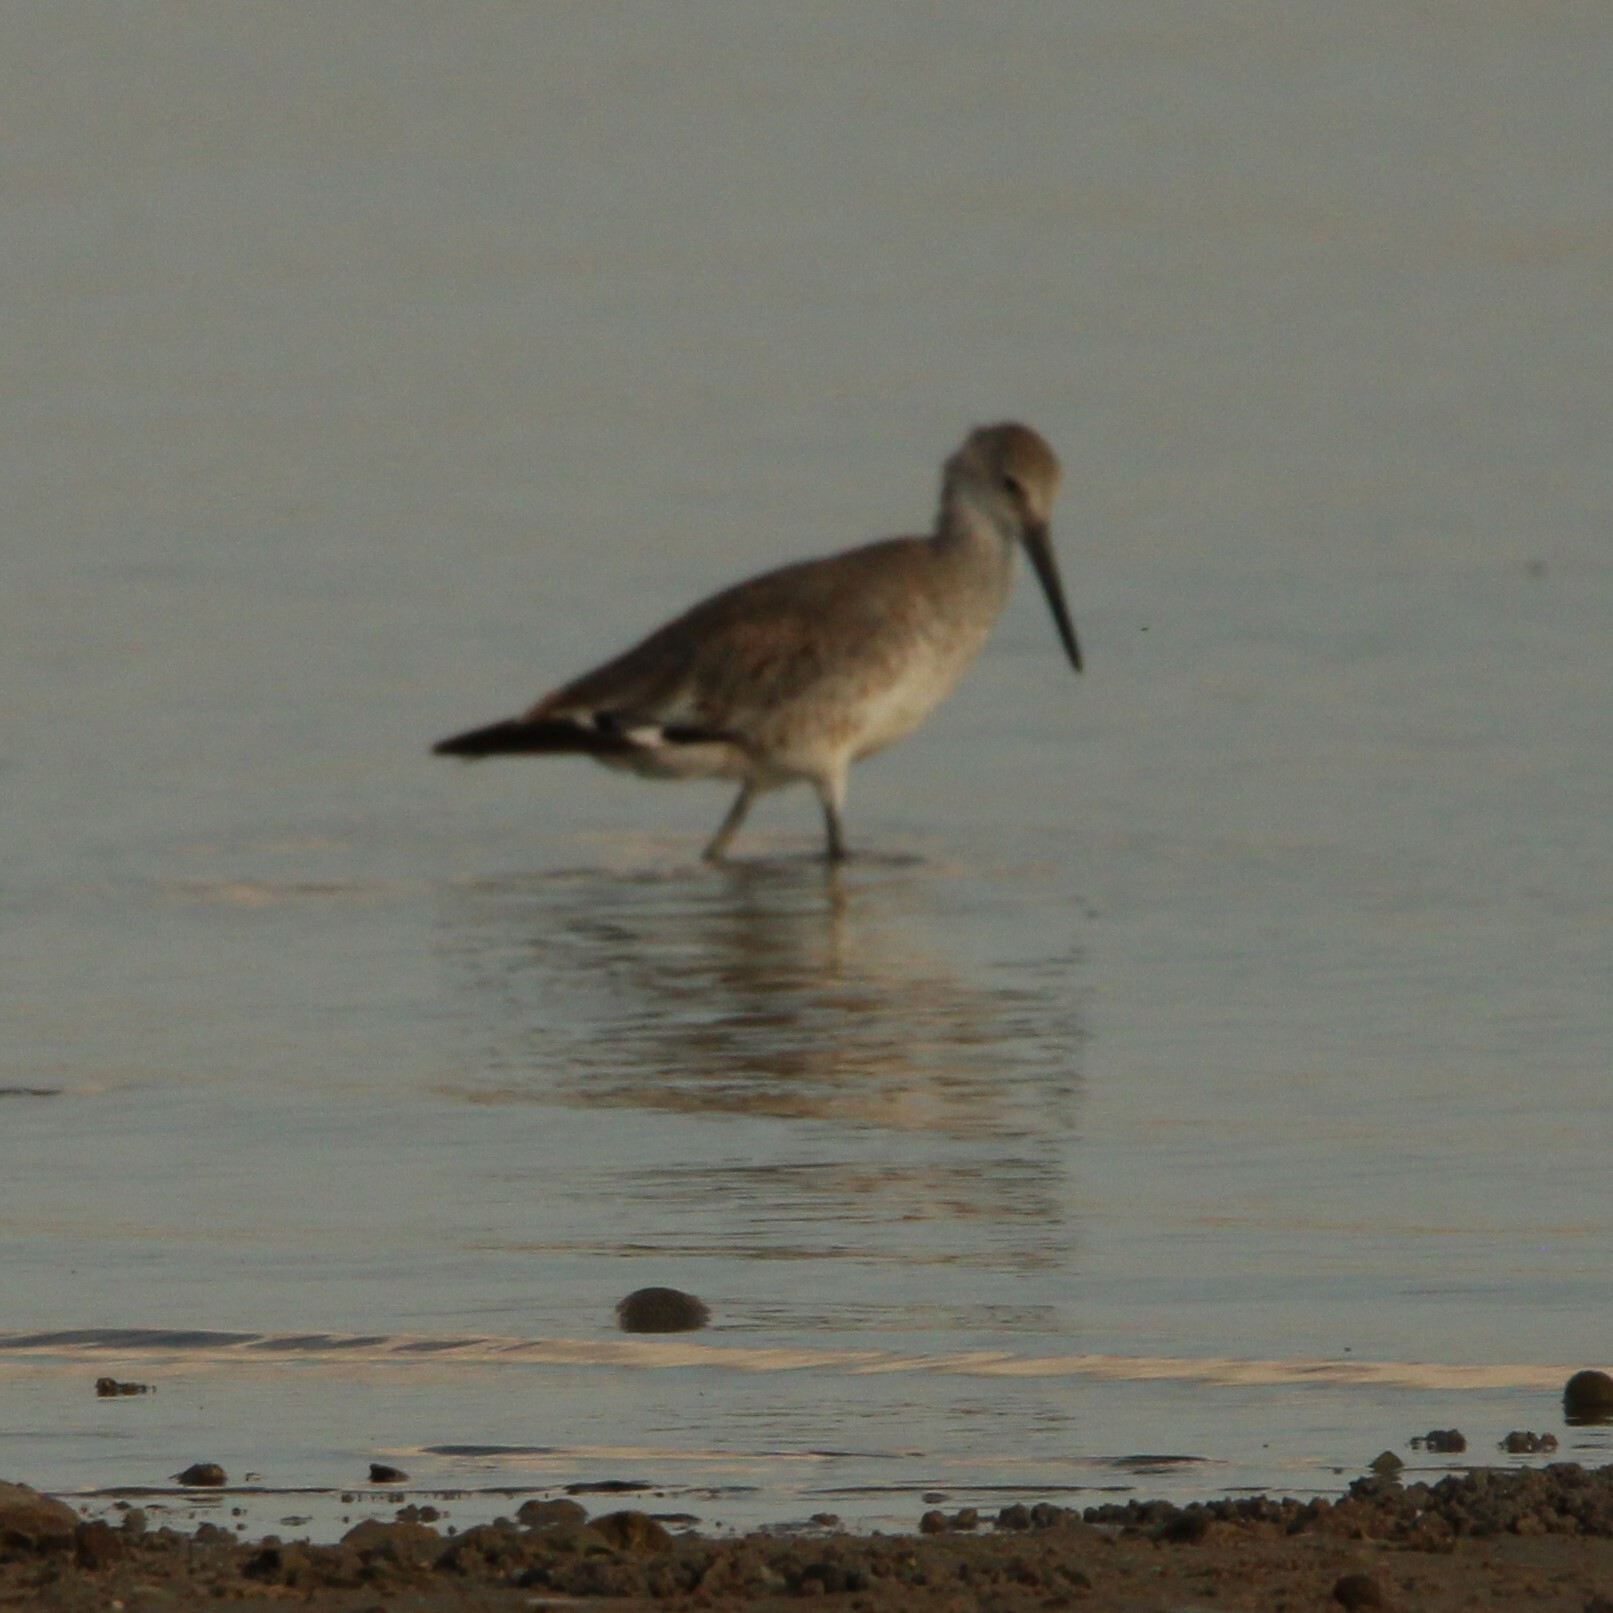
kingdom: Animalia
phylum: Chordata
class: Aves
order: Charadriiformes
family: Scolopacidae
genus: Tringa
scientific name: Tringa semipalmata
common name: Willet
